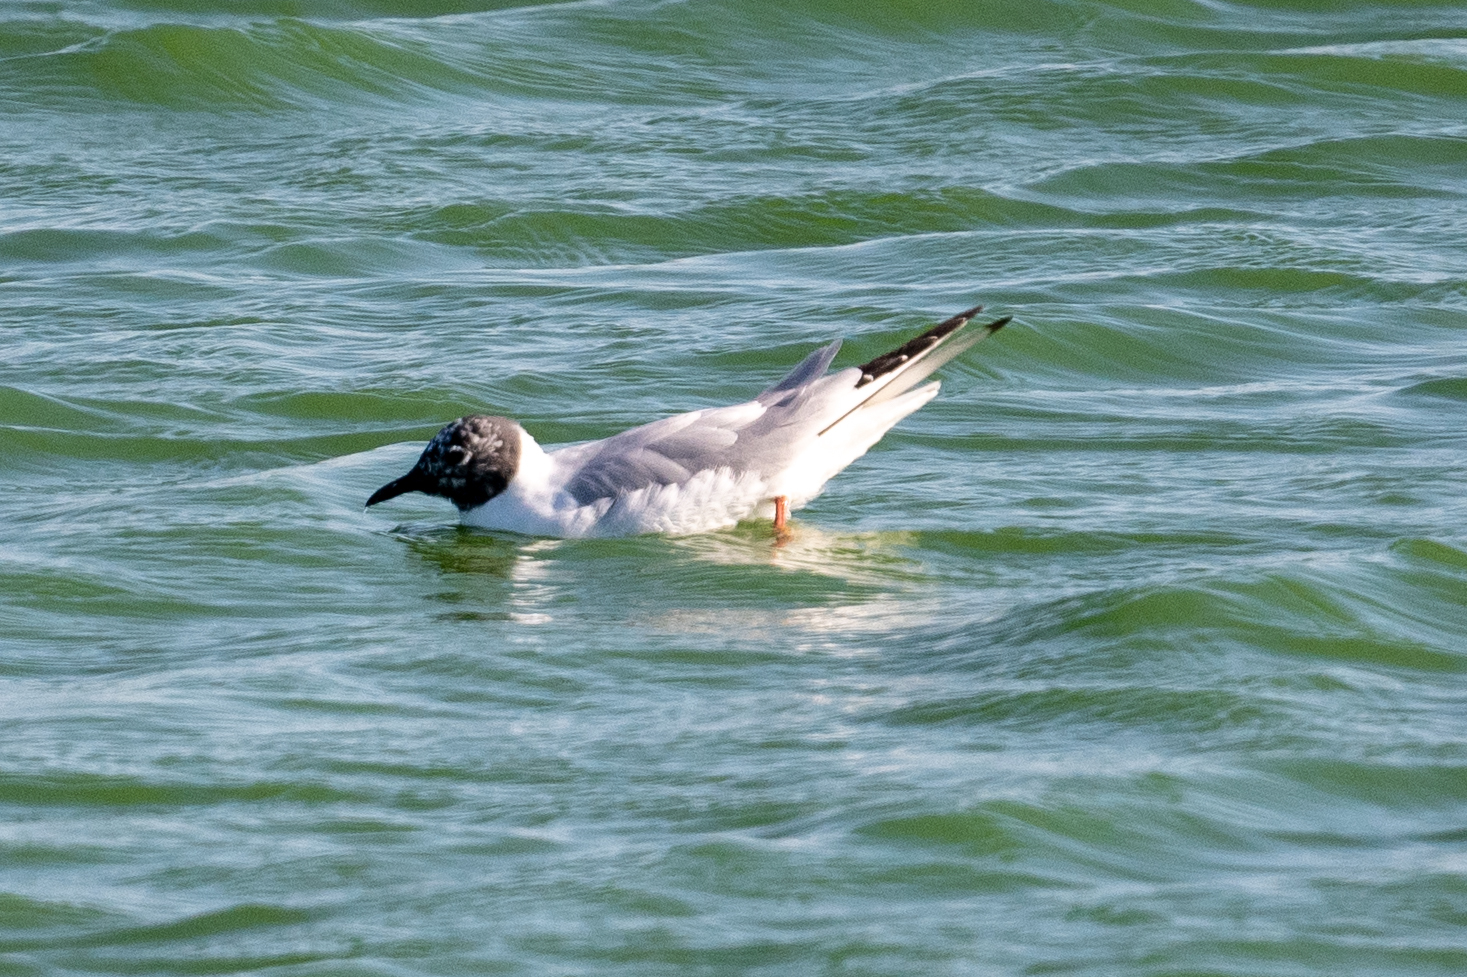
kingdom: Animalia
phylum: Chordata
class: Aves
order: Charadriiformes
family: Laridae
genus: Chroicocephalus
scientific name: Chroicocephalus philadelphia
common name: Bonaparte's gull
